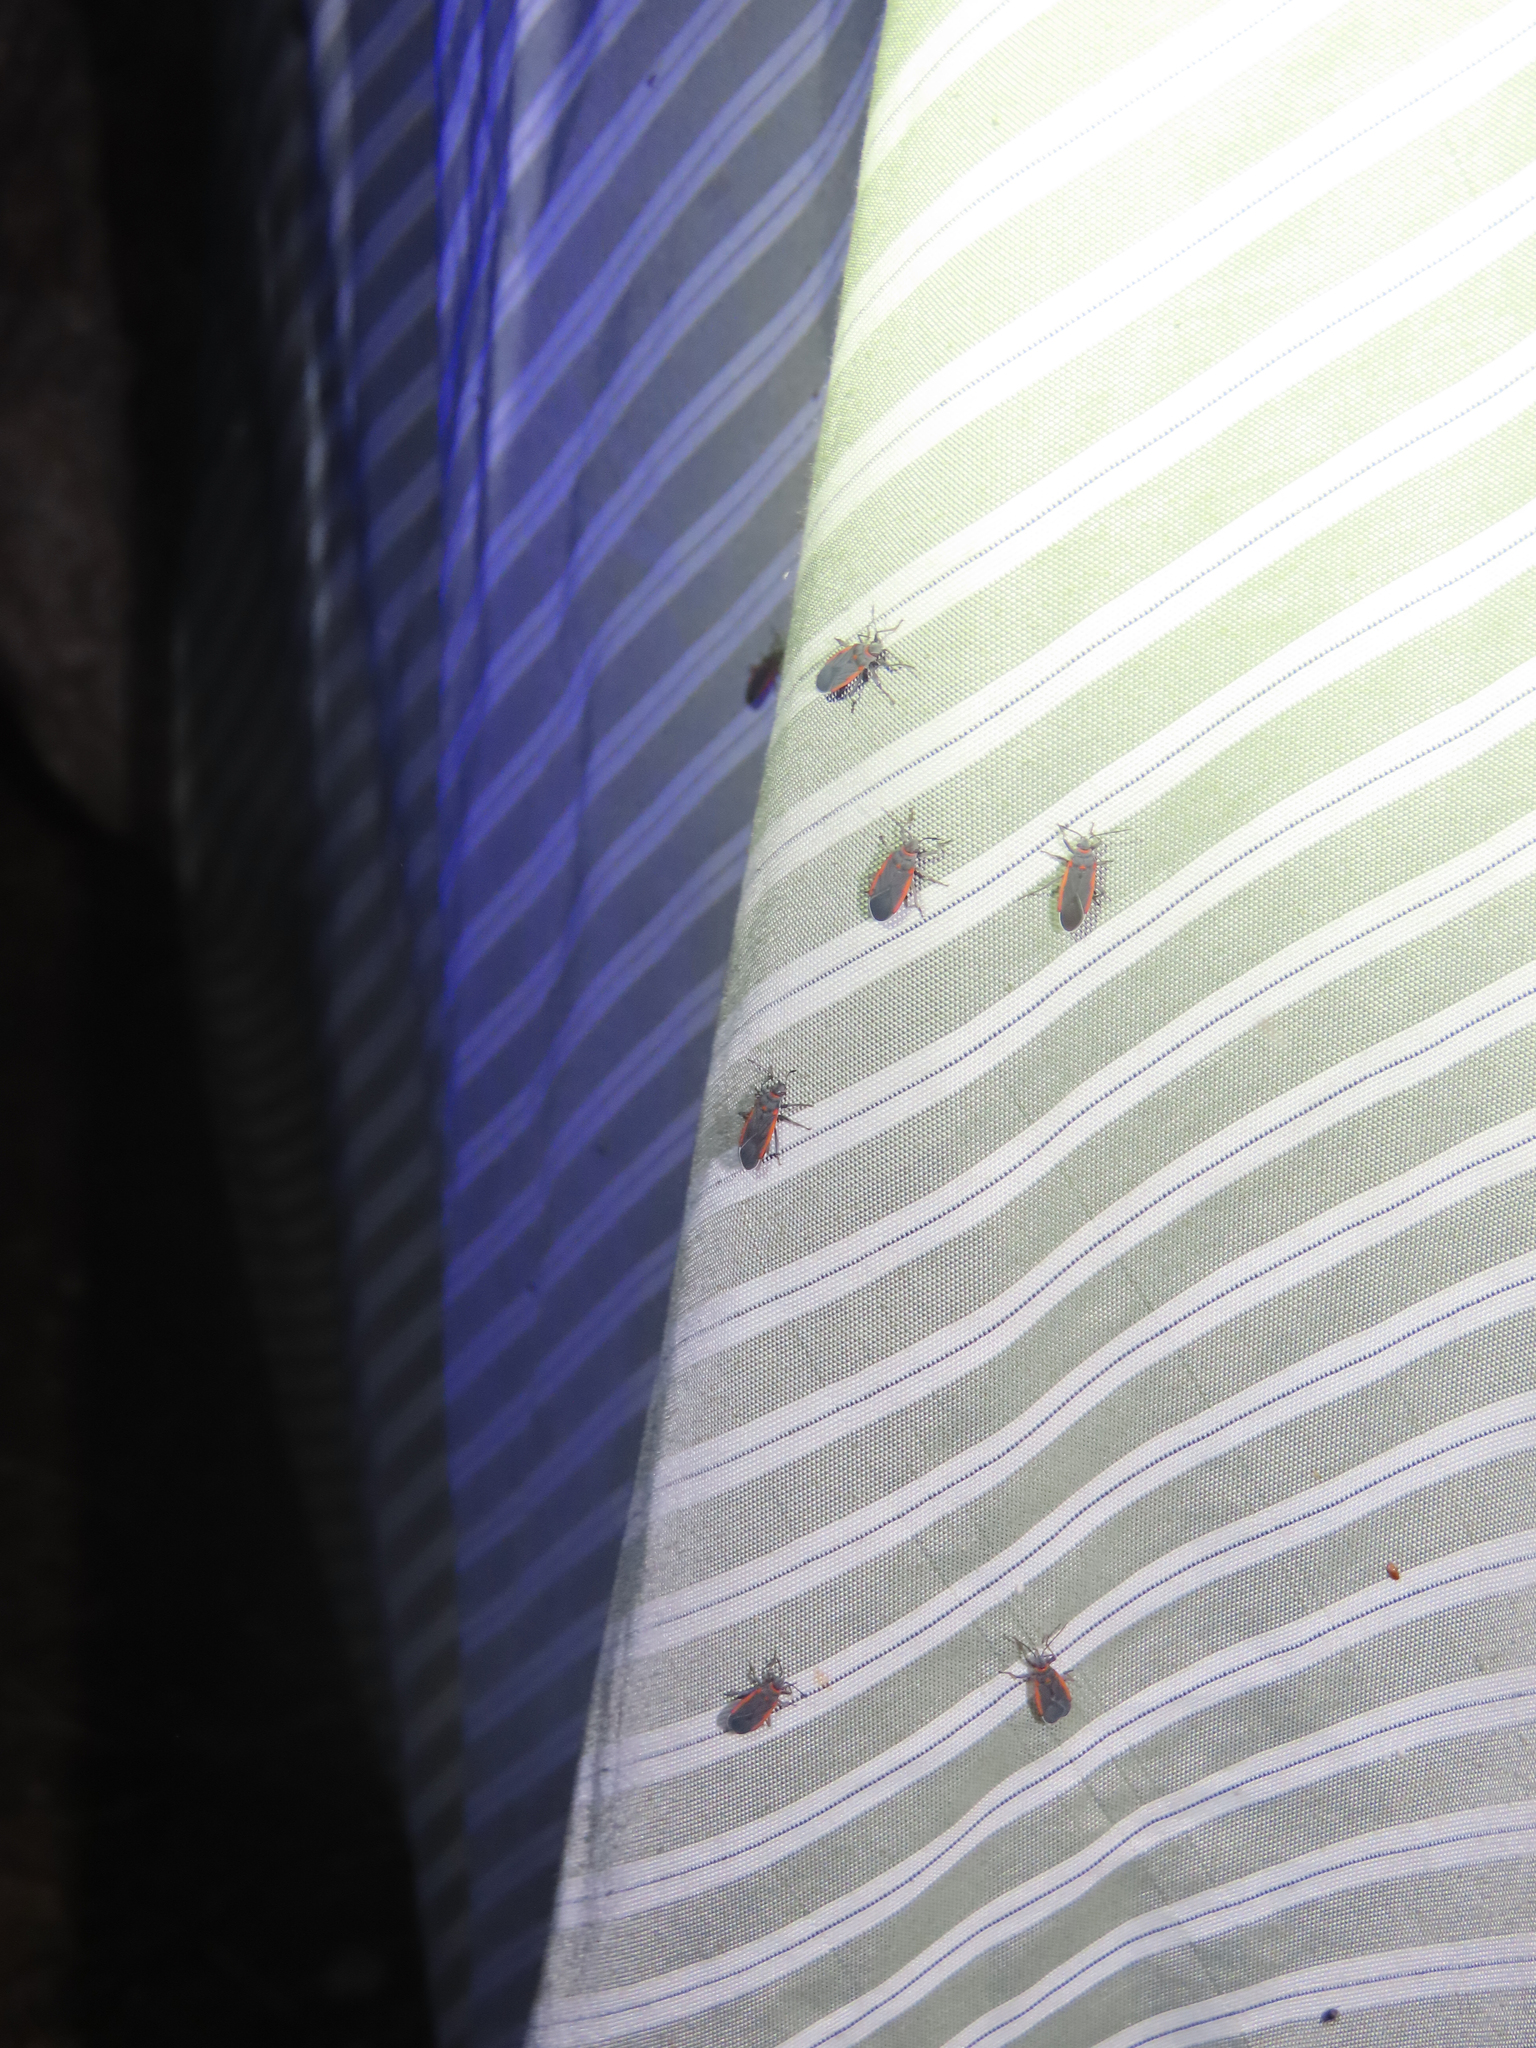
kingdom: Animalia
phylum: Arthropoda
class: Insecta
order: Hemiptera
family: Lygaeidae
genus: Melacoryphus
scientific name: Melacoryphus lateralis
